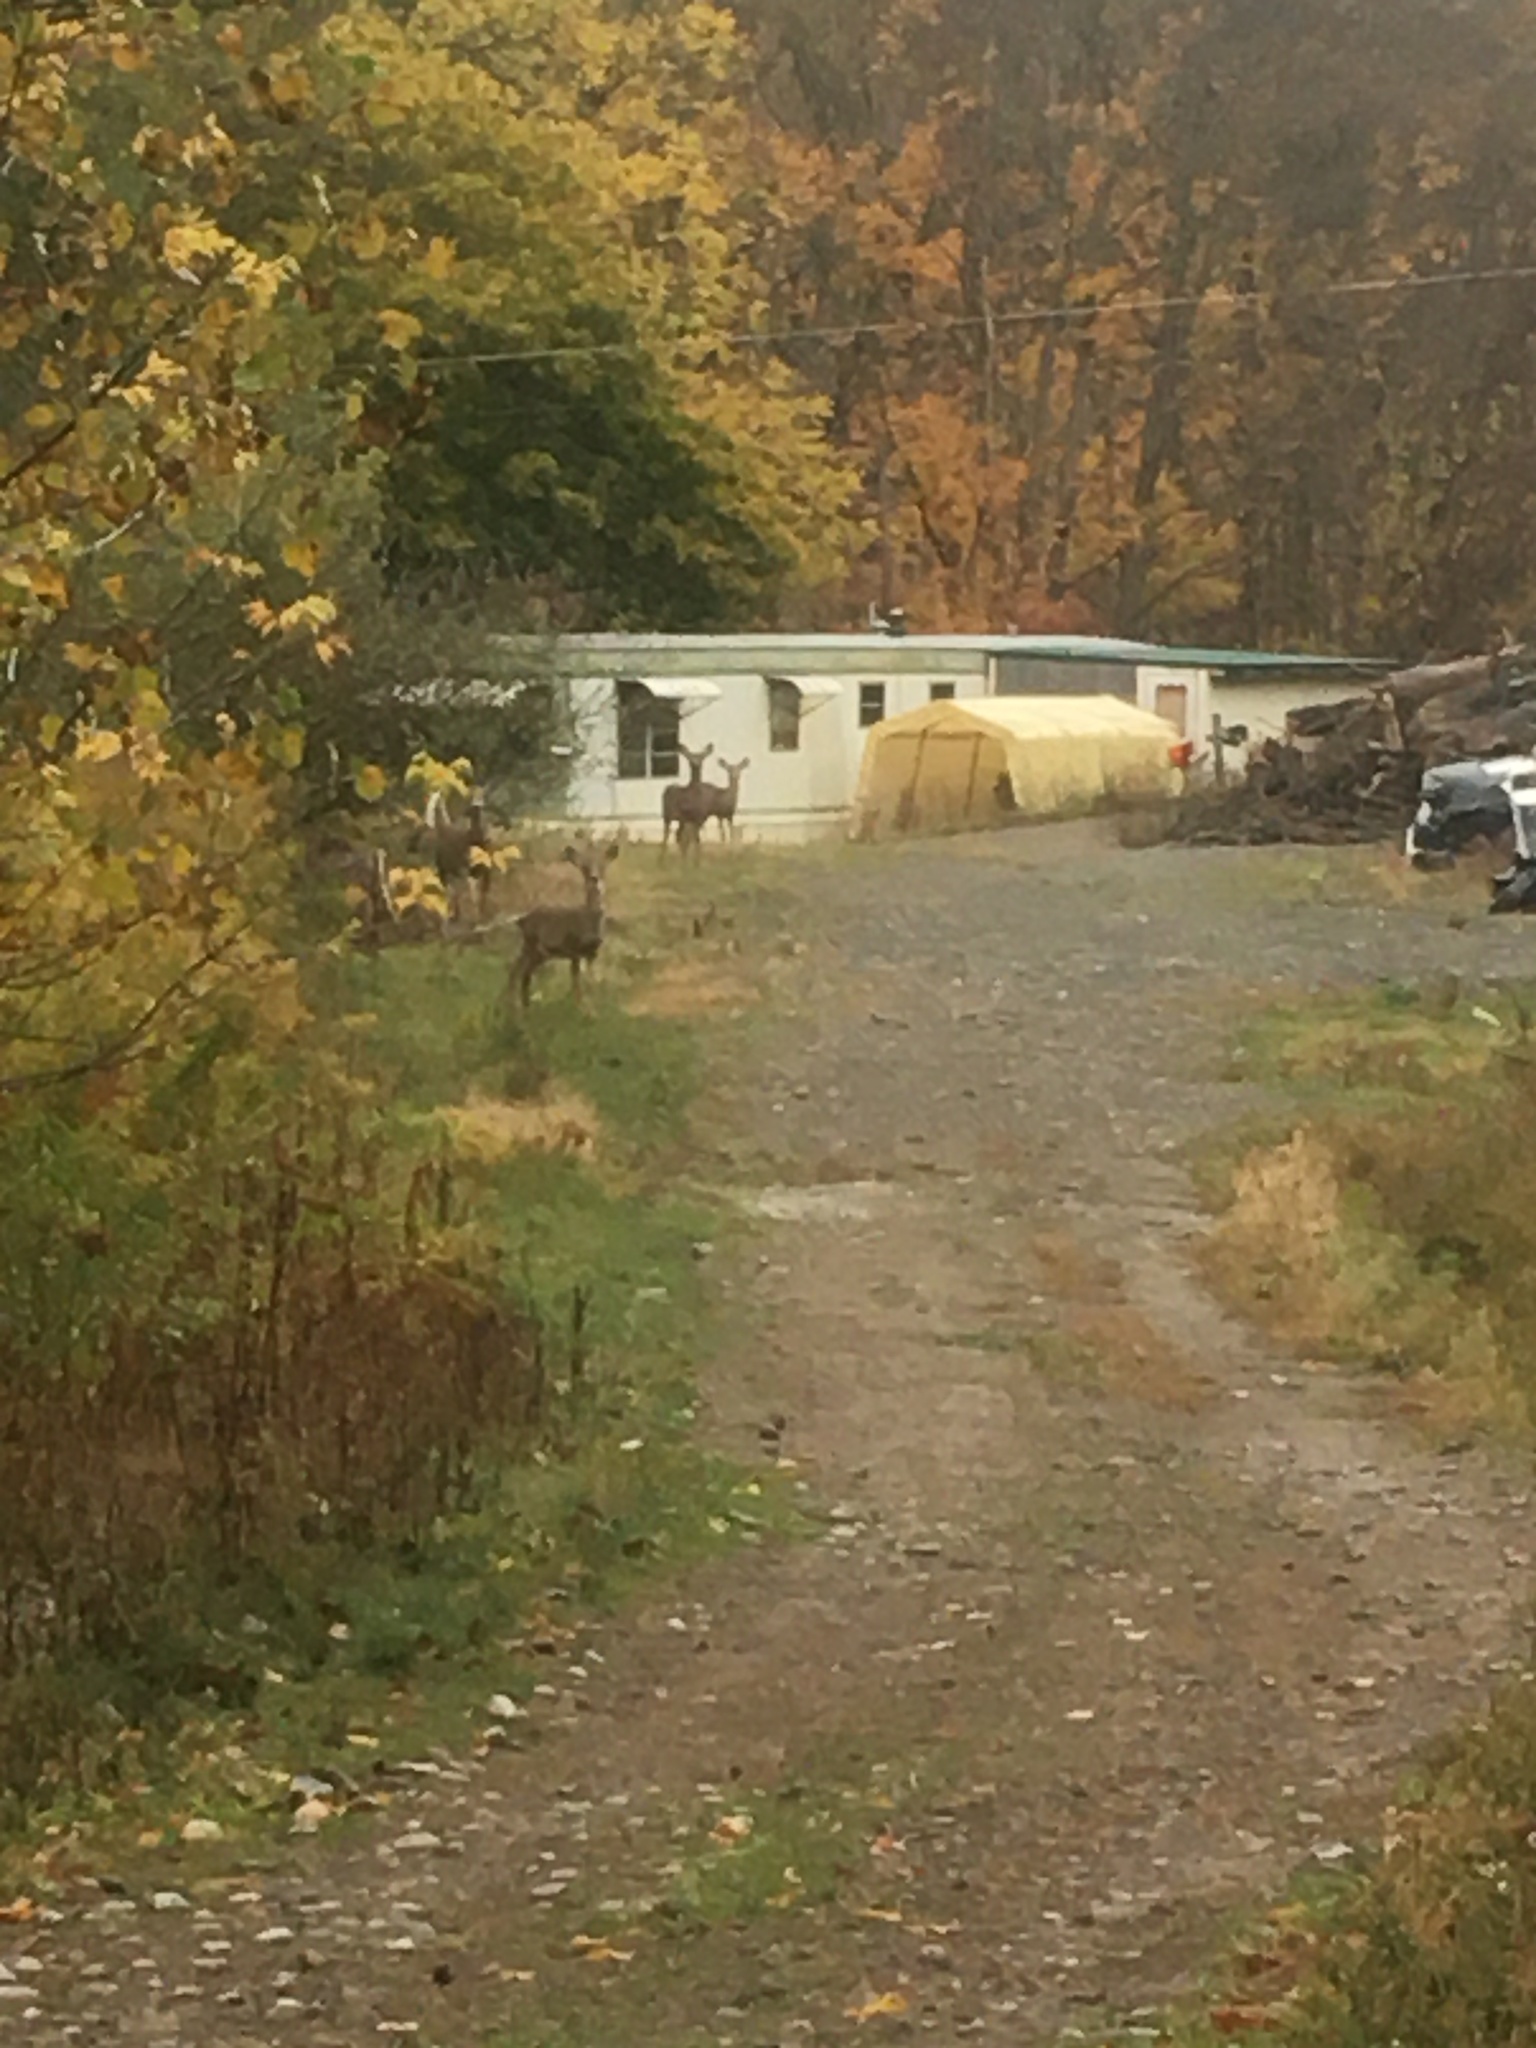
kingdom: Animalia
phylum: Chordata
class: Mammalia
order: Artiodactyla
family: Cervidae
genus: Odocoileus
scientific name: Odocoileus virginianus
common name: White-tailed deer
